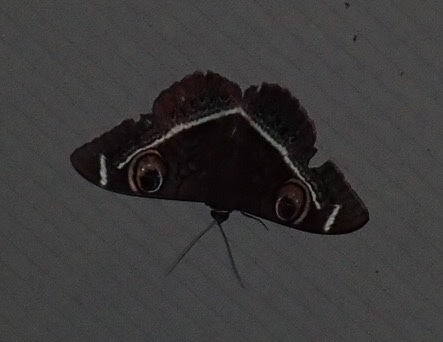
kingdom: Animalia
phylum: Arthropoda
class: Insecta
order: Lepidoptera
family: Erebidae
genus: Cyligramma
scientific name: Cyligramma latona
